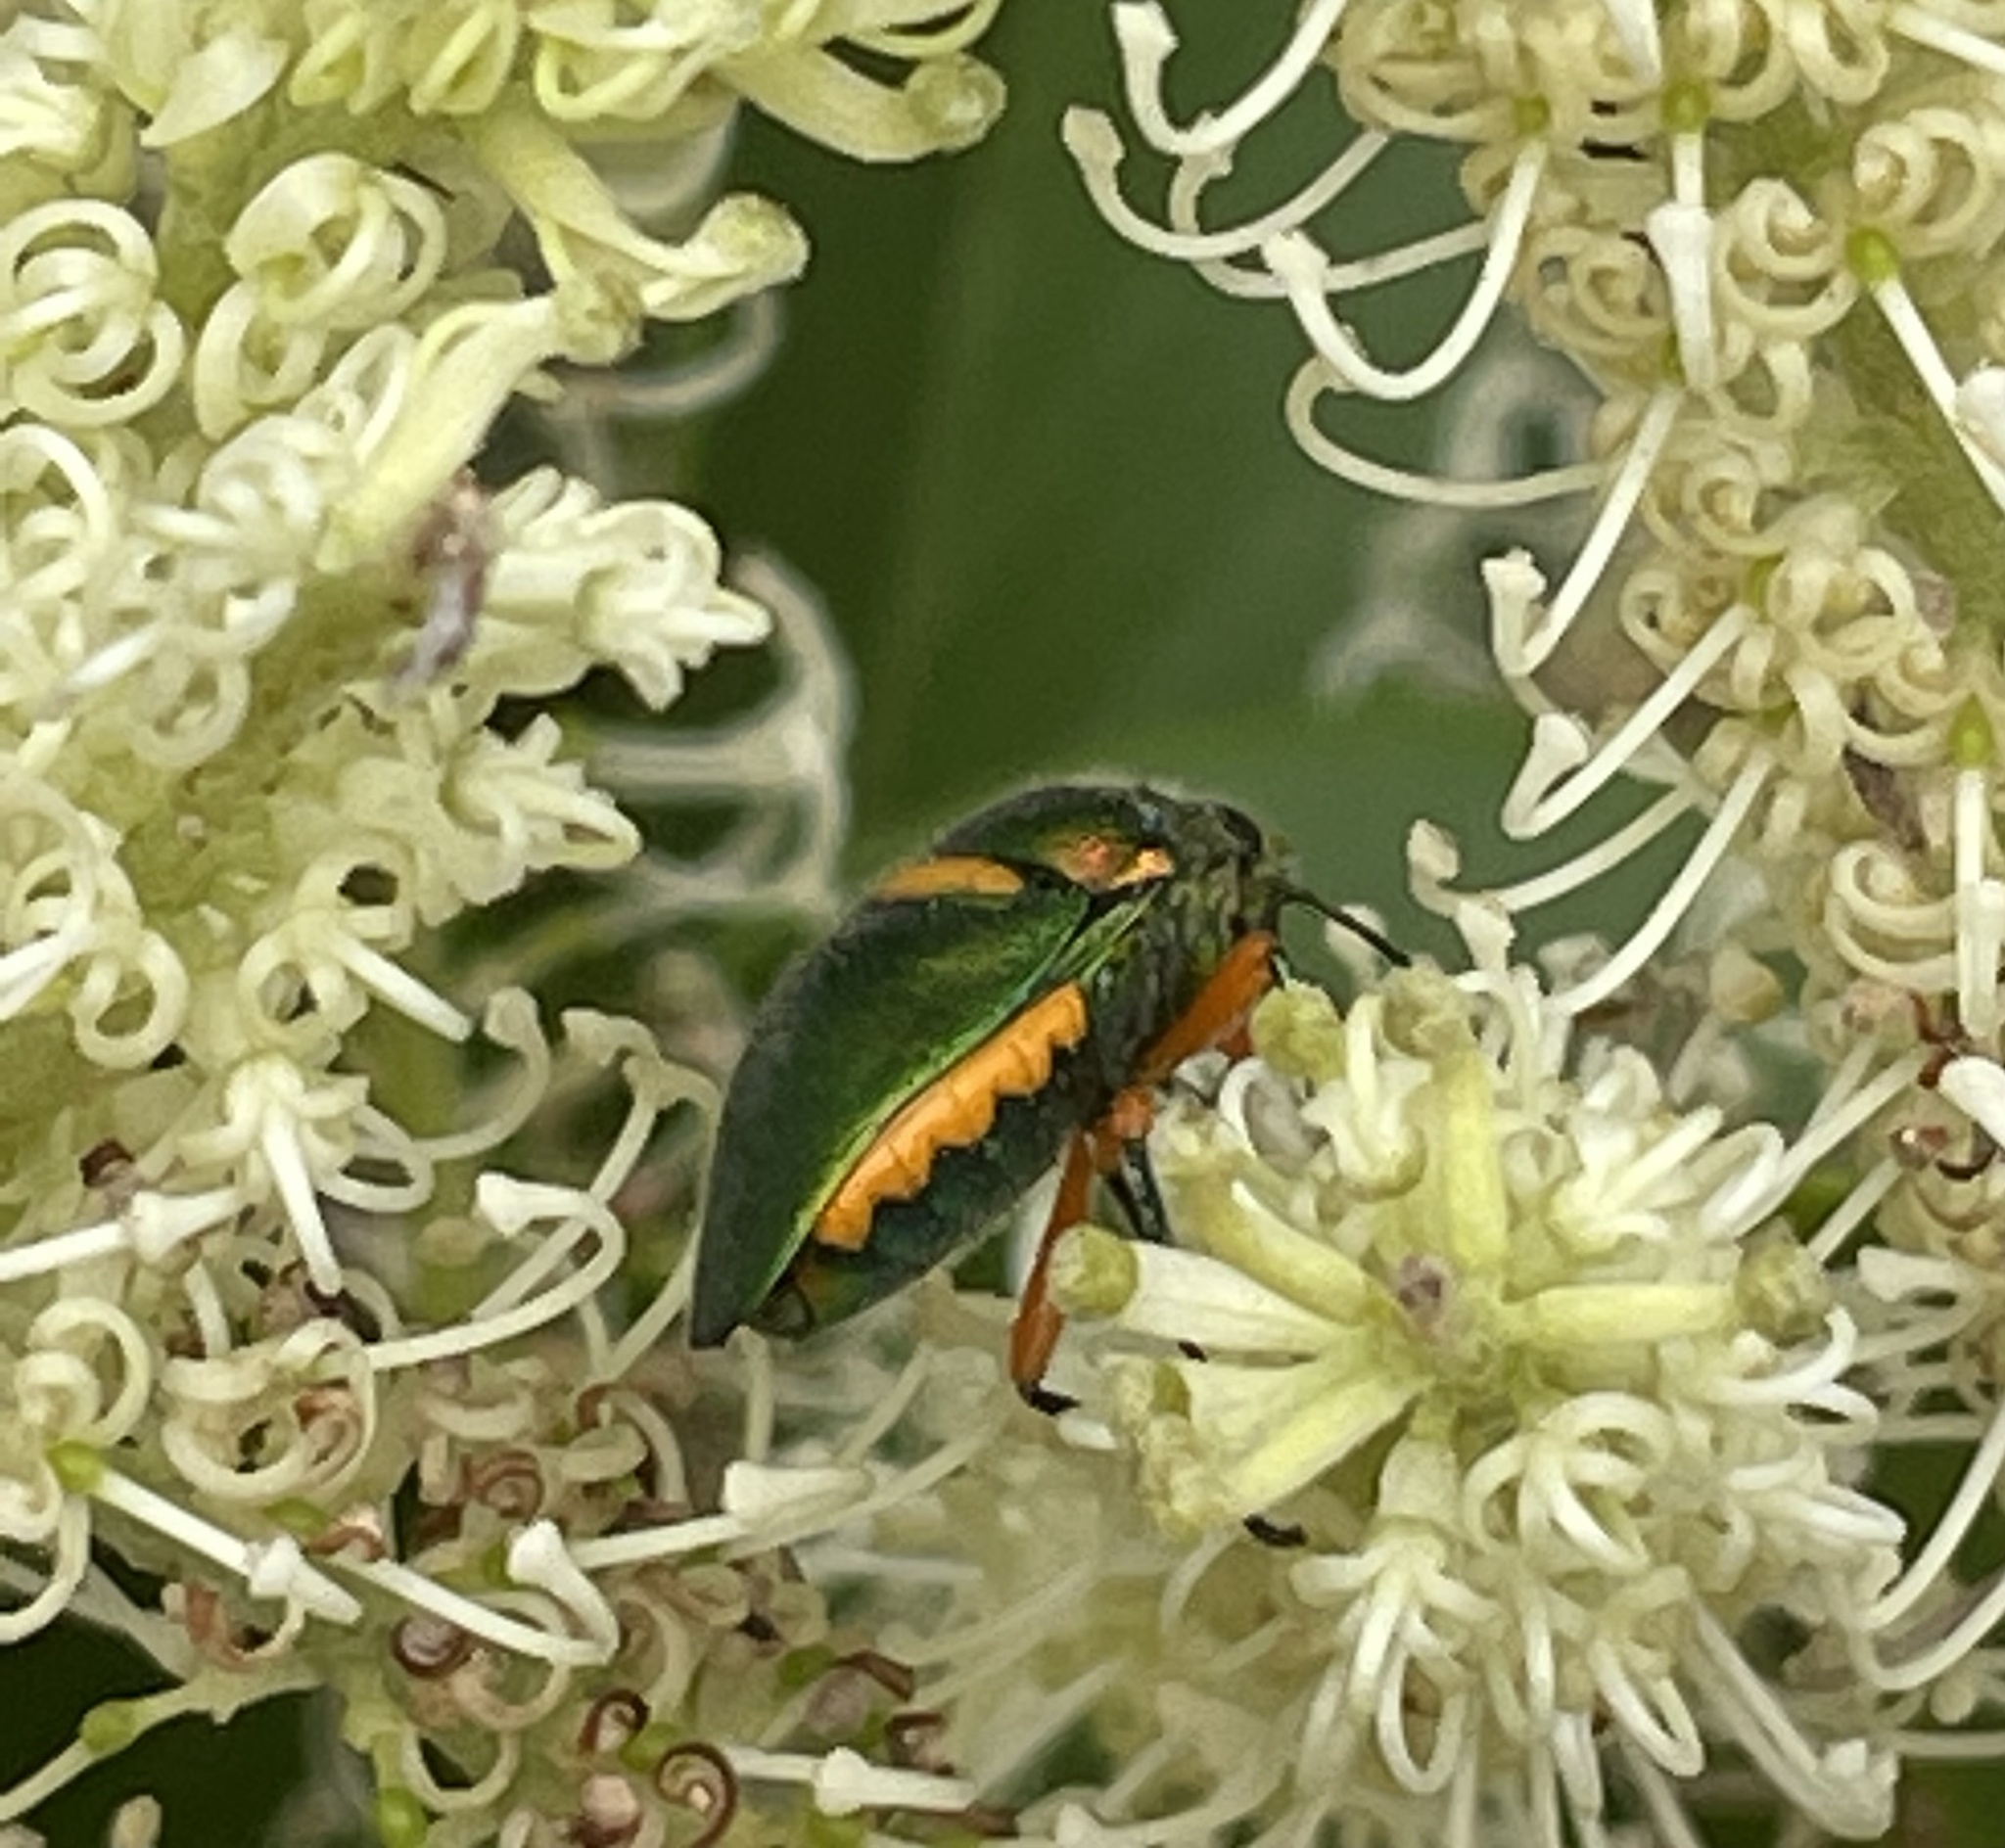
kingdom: Animalia
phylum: Arthropoda
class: Insecta
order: Hemiptera
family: Scutelleridae
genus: Lampromicra
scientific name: Lampromicra senator
